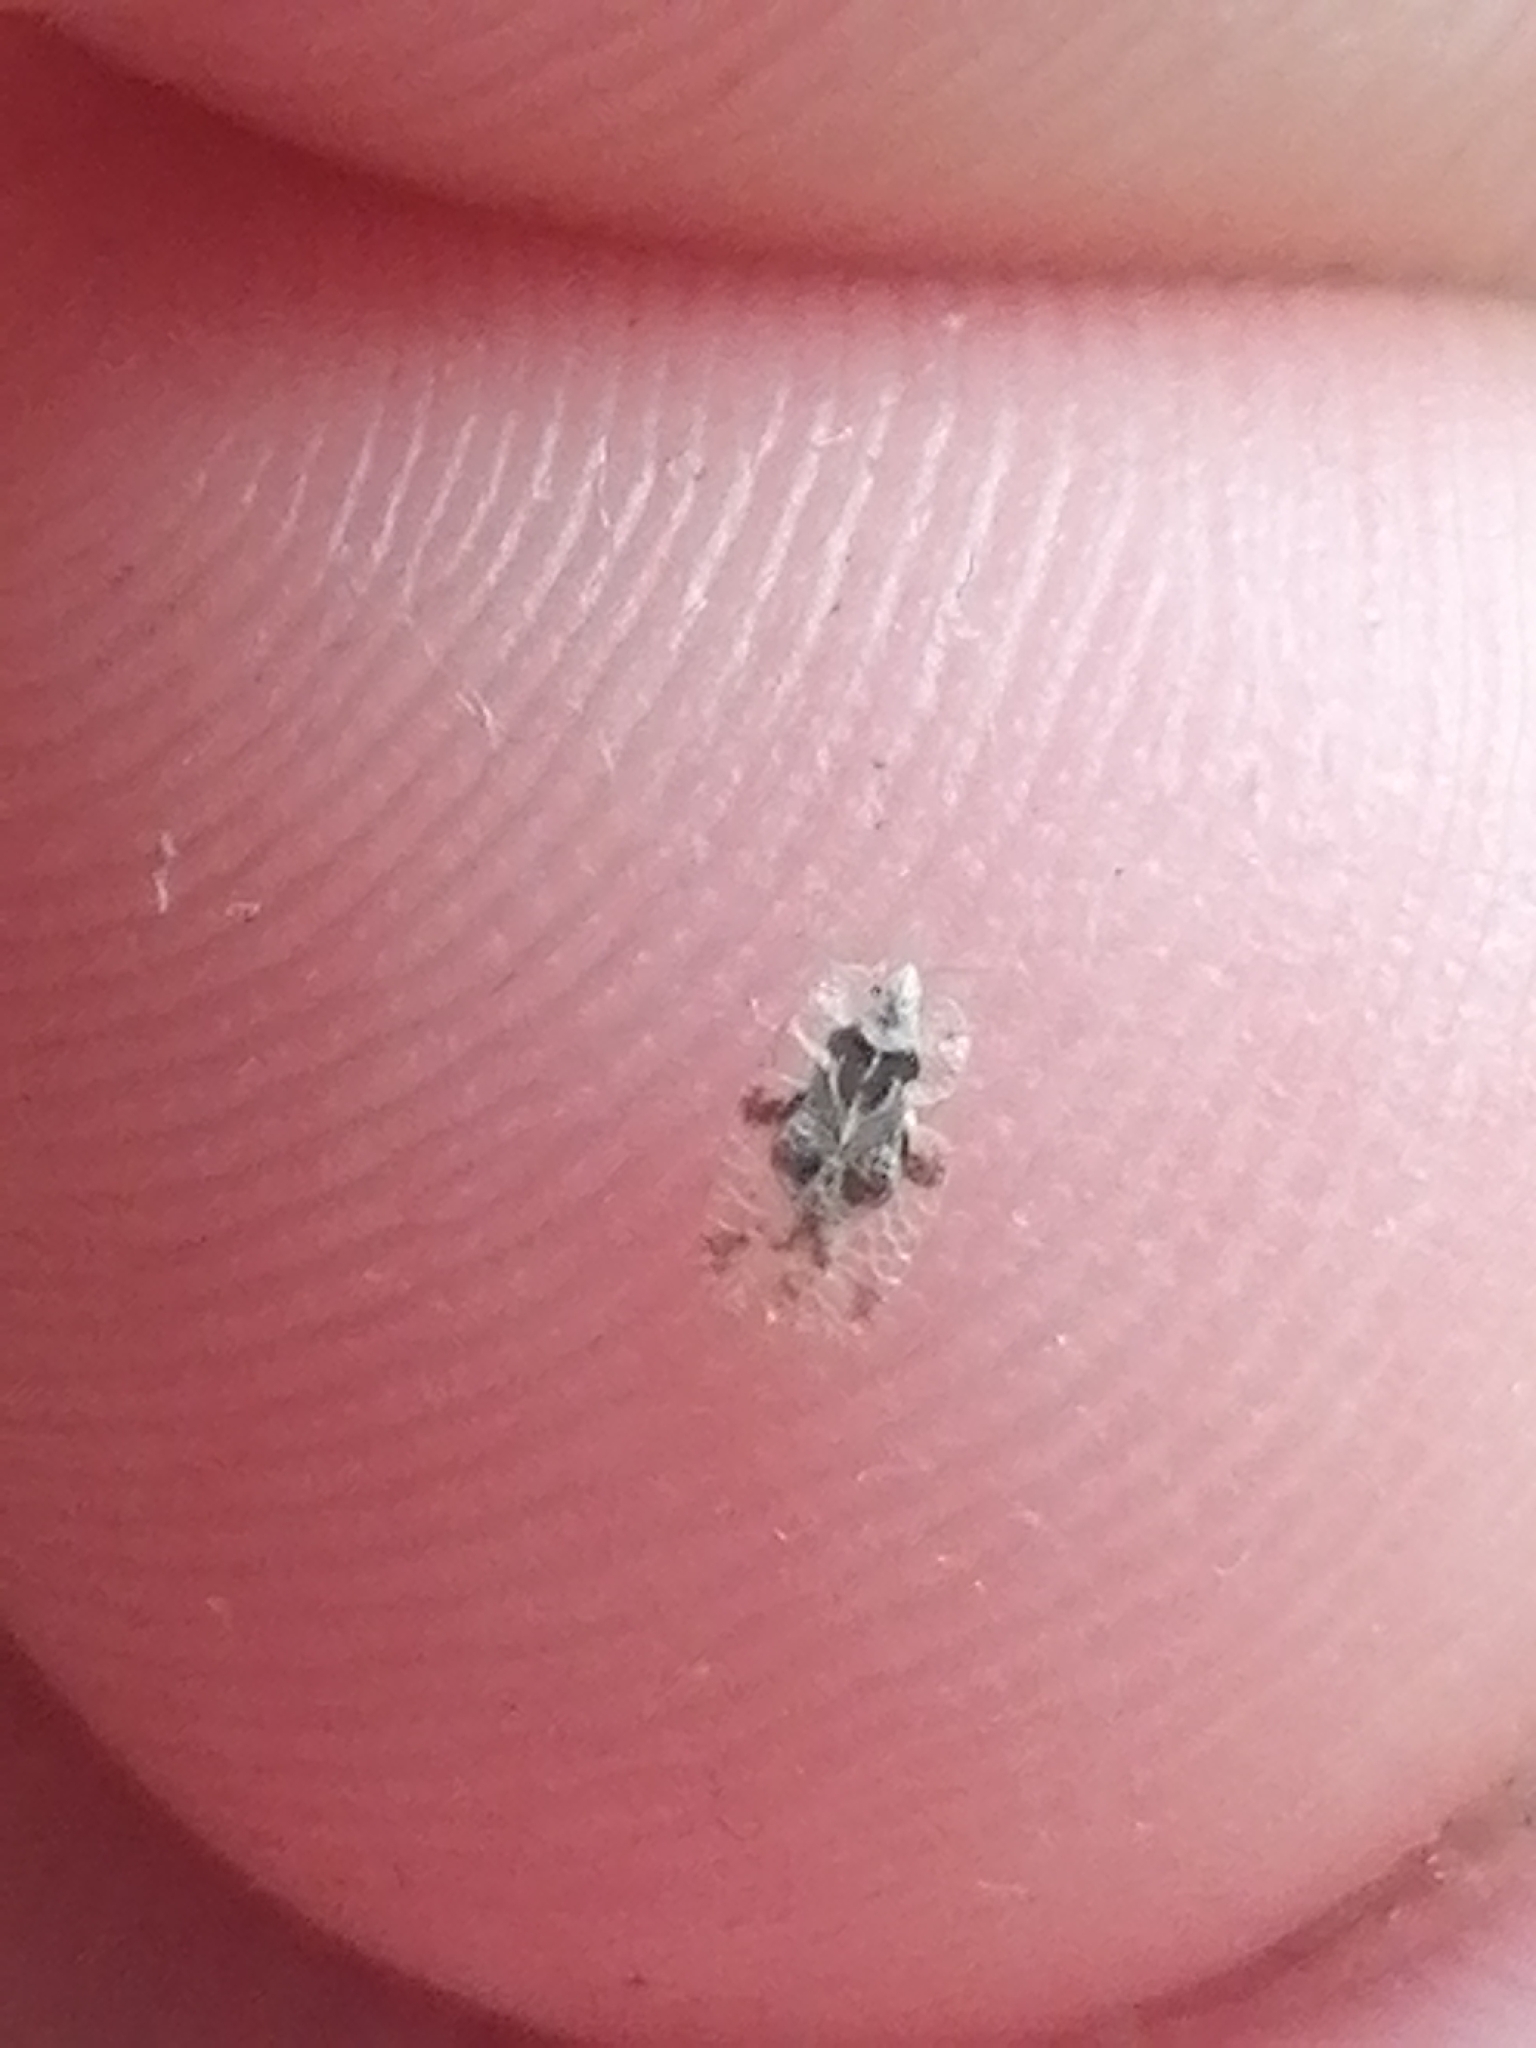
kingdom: Animalia
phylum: Arthropoda
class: Insecta
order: Hemiptera
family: Tingidae
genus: Corythucha
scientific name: Corythucha arcuata
